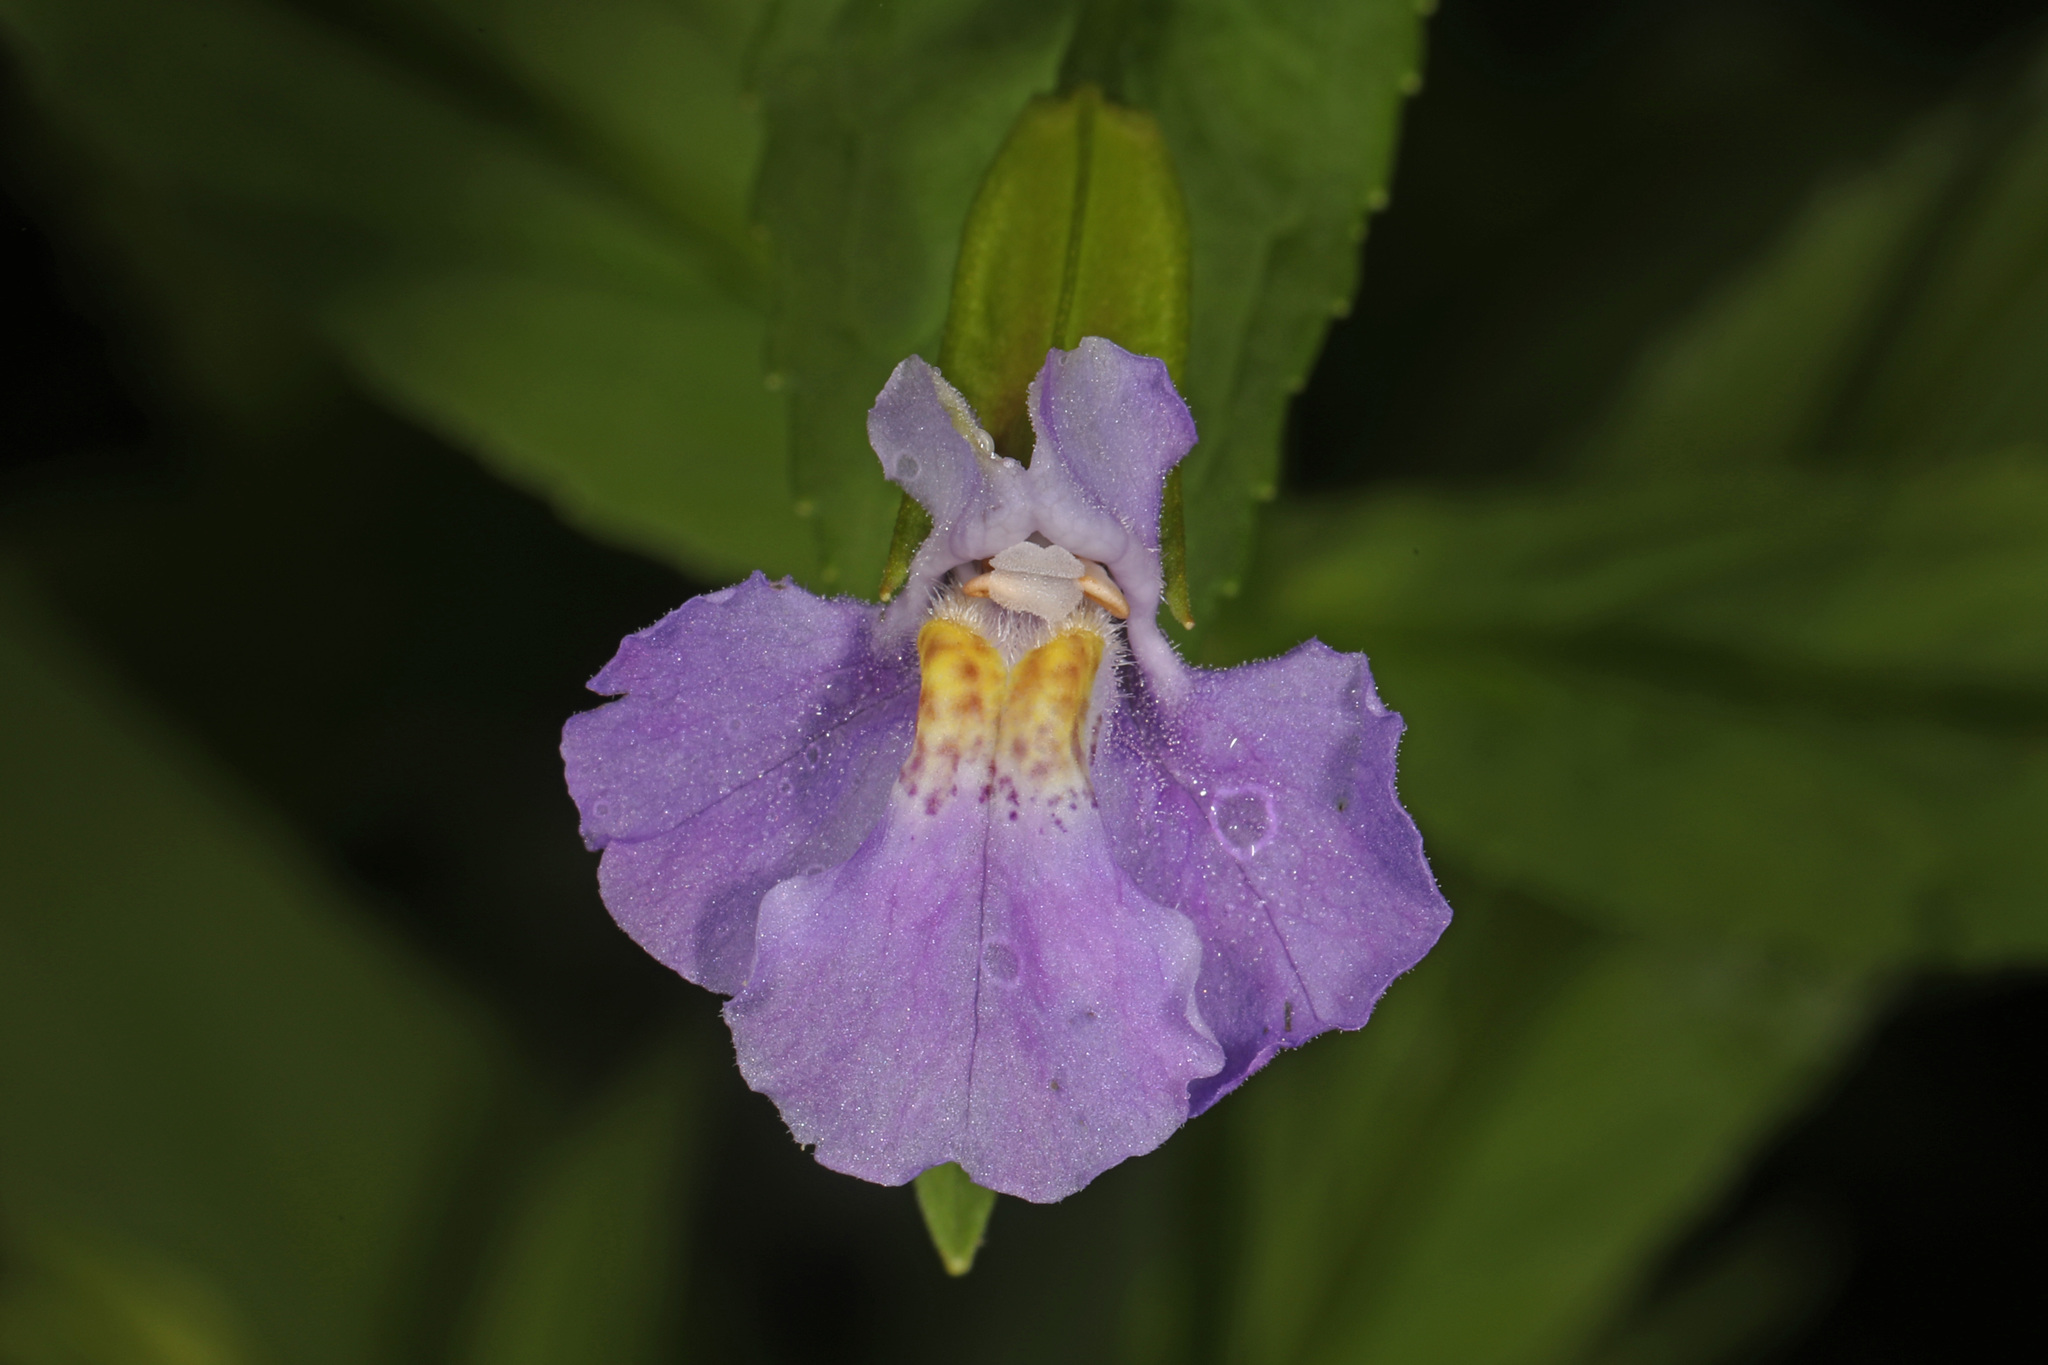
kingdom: Plantae
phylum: Tracheophyta
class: Magnoliopsida
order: Lamiales
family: Phrymaceae
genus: Mimulus
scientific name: Mimulus ringens
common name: Allegheny monkeyflower
